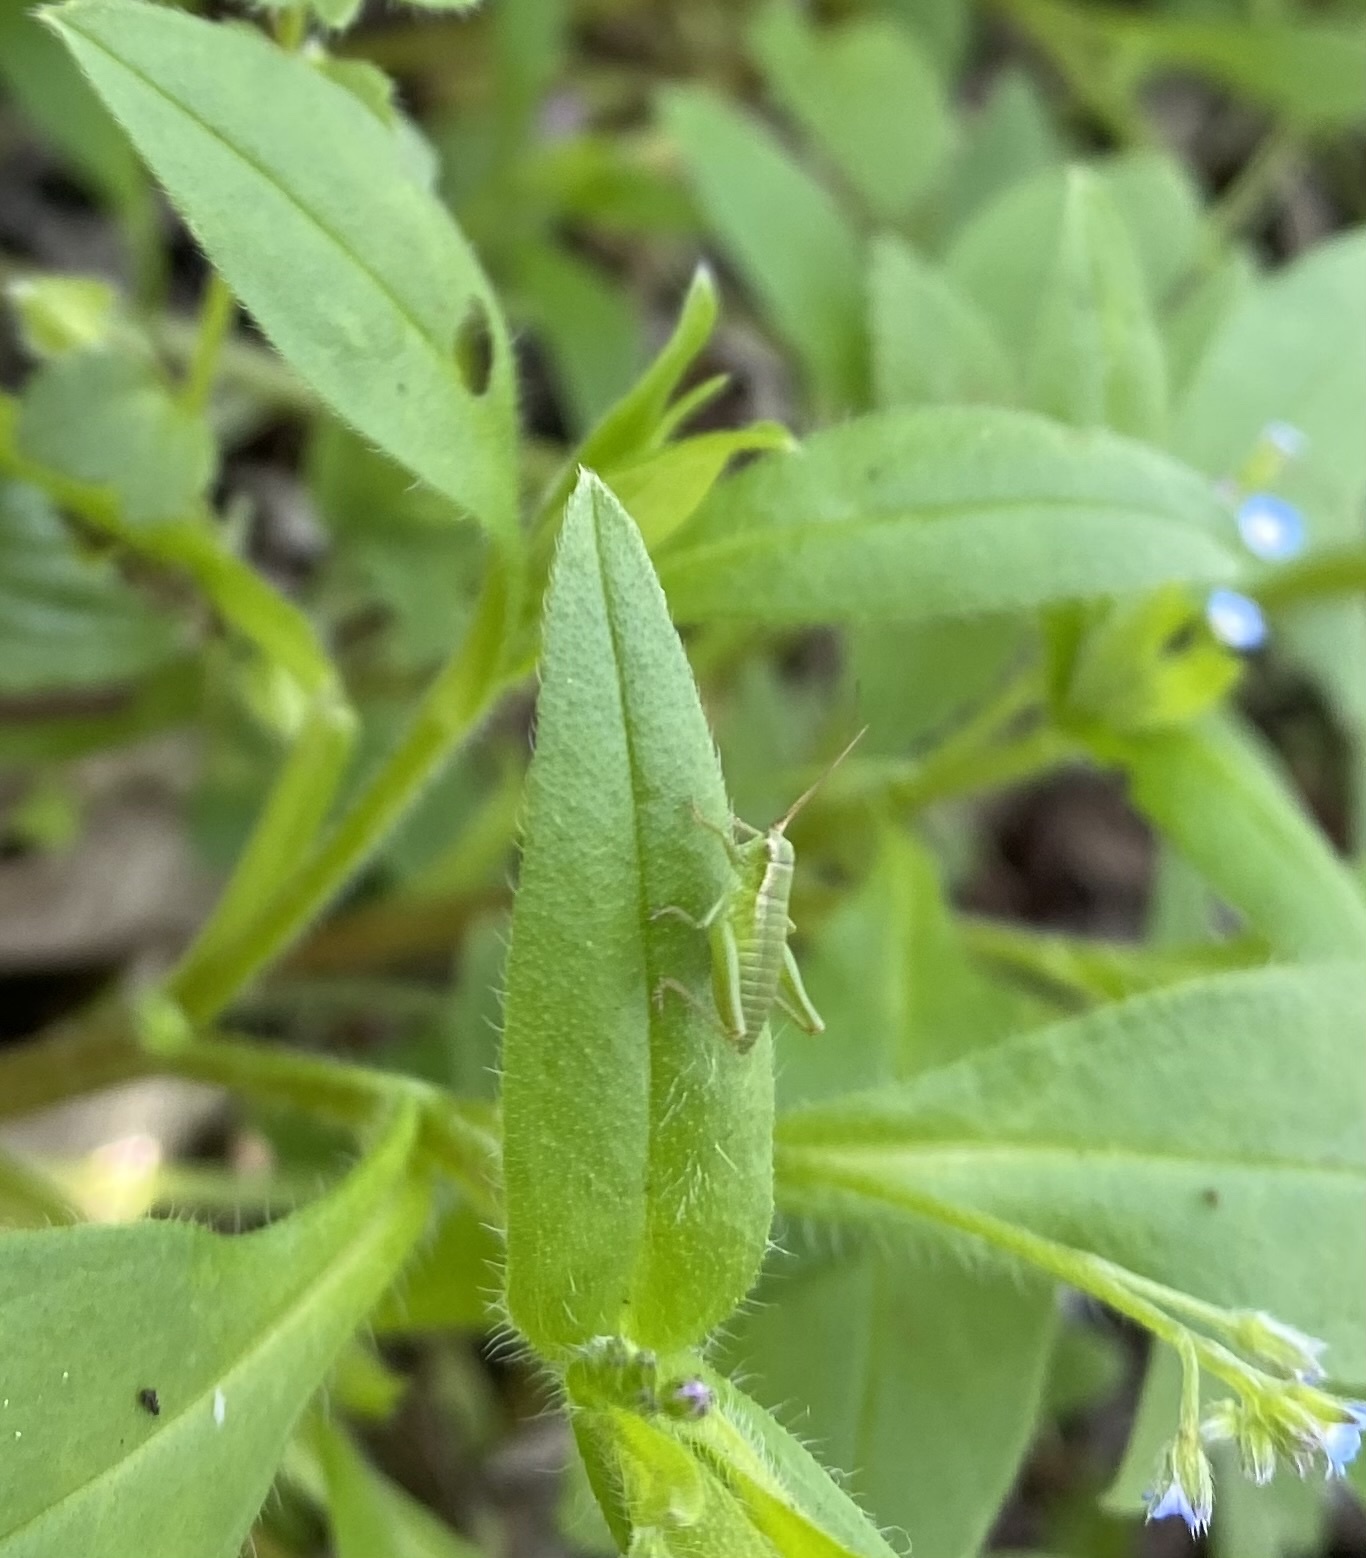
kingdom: Animalia
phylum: Arthropoda
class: Insecta
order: Orthoptera
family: Tettigoniidae
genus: Isophya
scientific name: Isophya
